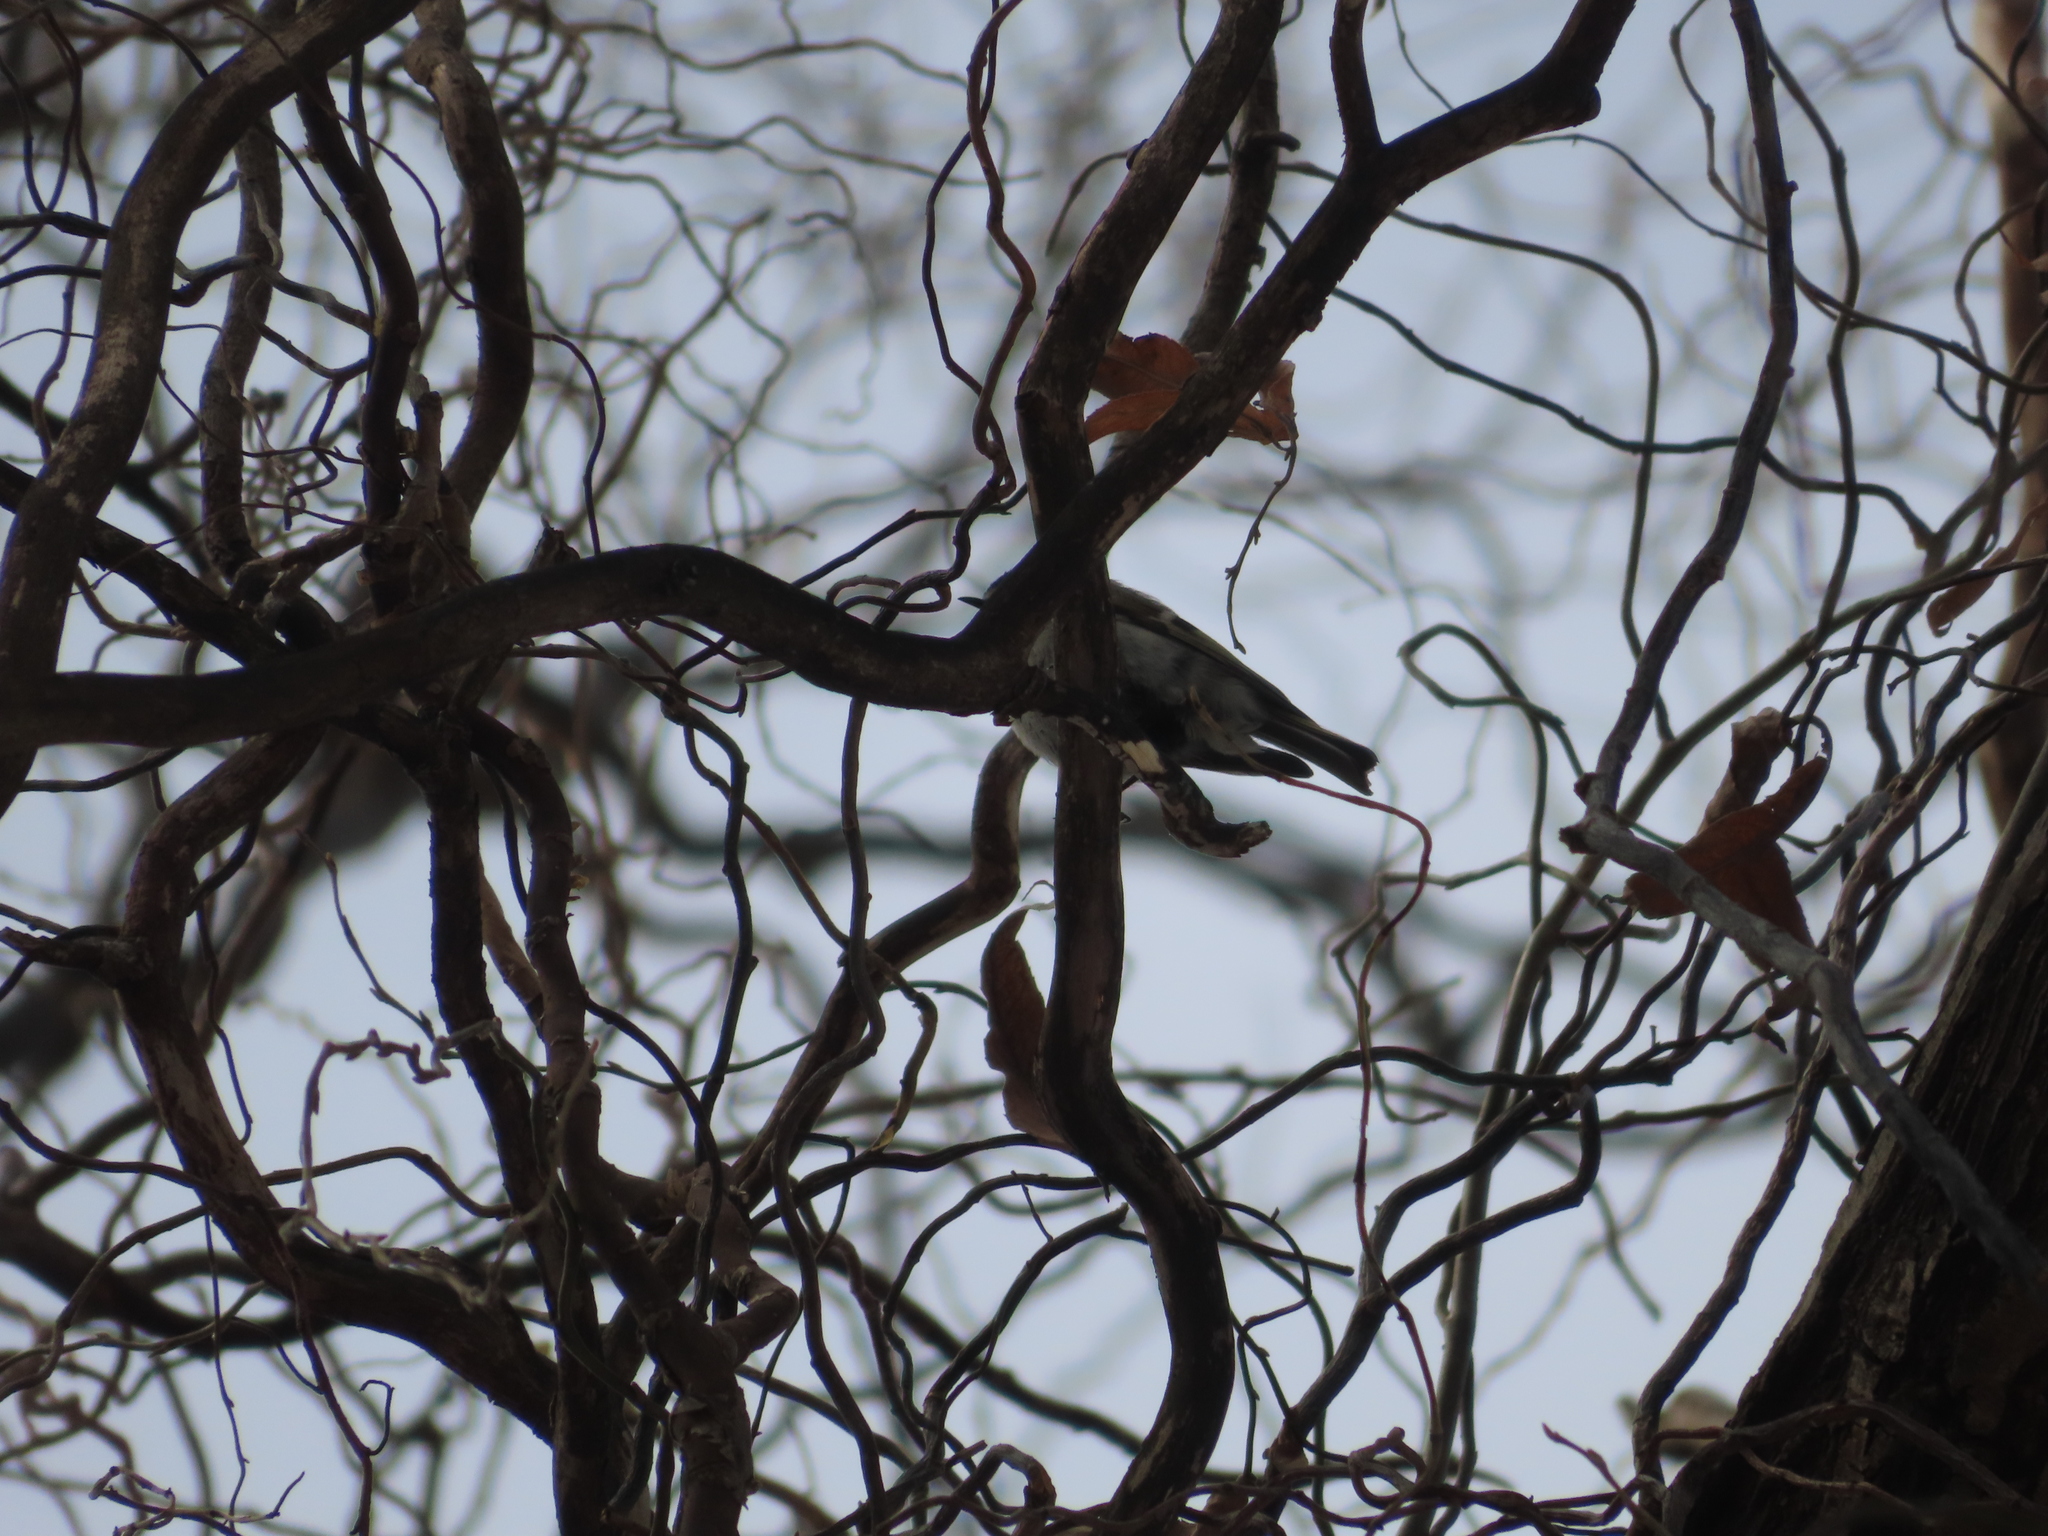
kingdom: Animalia
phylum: Chordata
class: Aves
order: Passeriformes
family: Regulidae
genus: Regulus
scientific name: Regulus satrapa
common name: Golden-crowned kinglet
